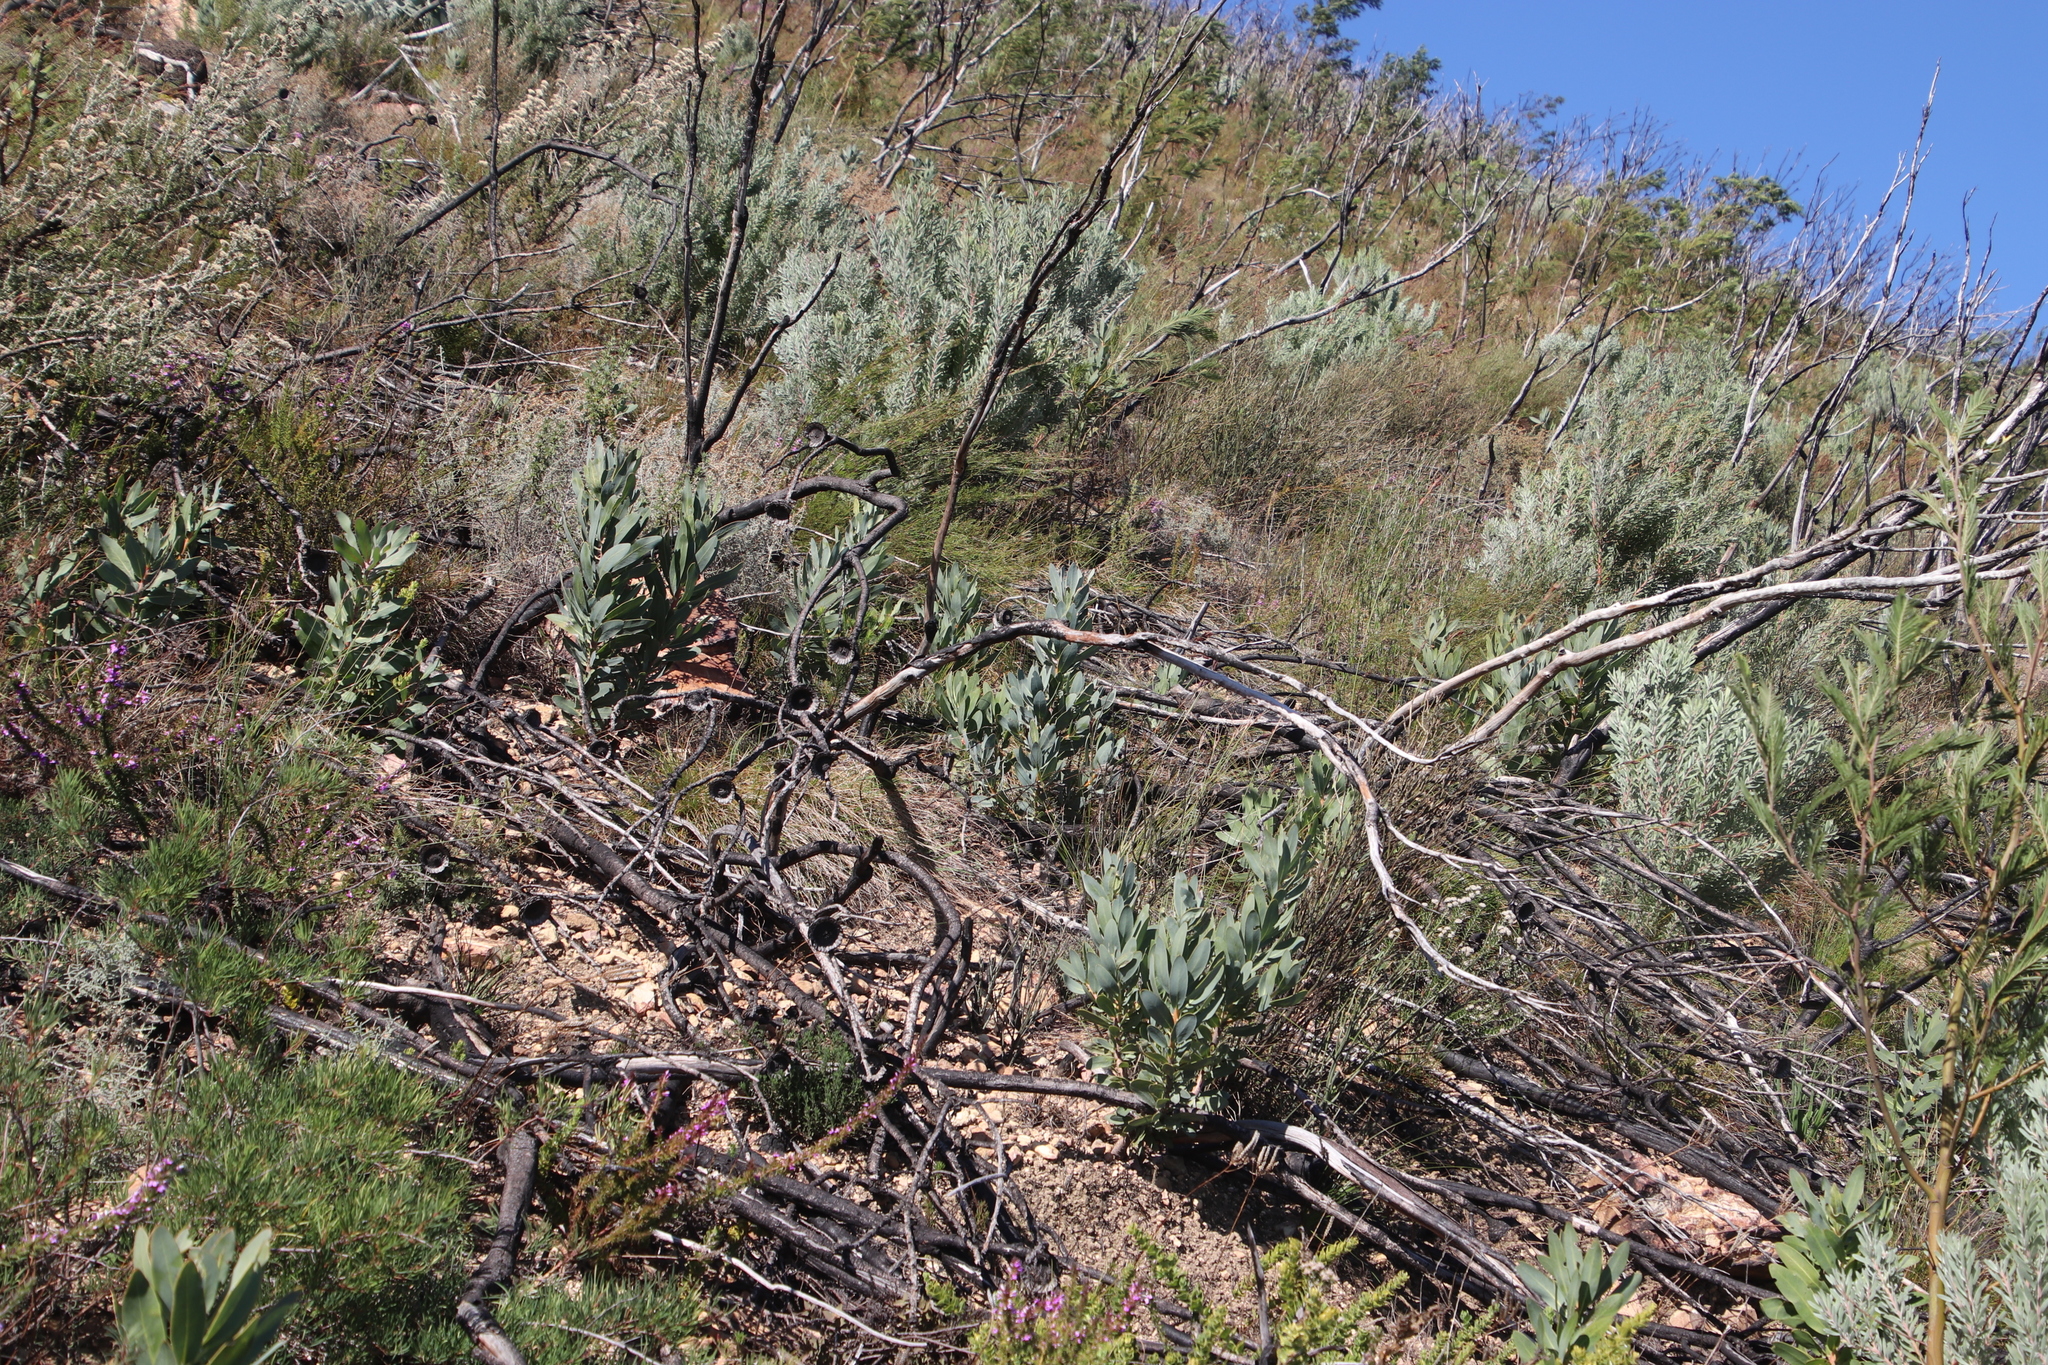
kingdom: Plantae
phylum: Tracheophyta
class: Magnoliopsida
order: Proteales
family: Proteaceae
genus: Protea
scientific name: Protea laurifolia
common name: Grey-leaf sugarbsh
